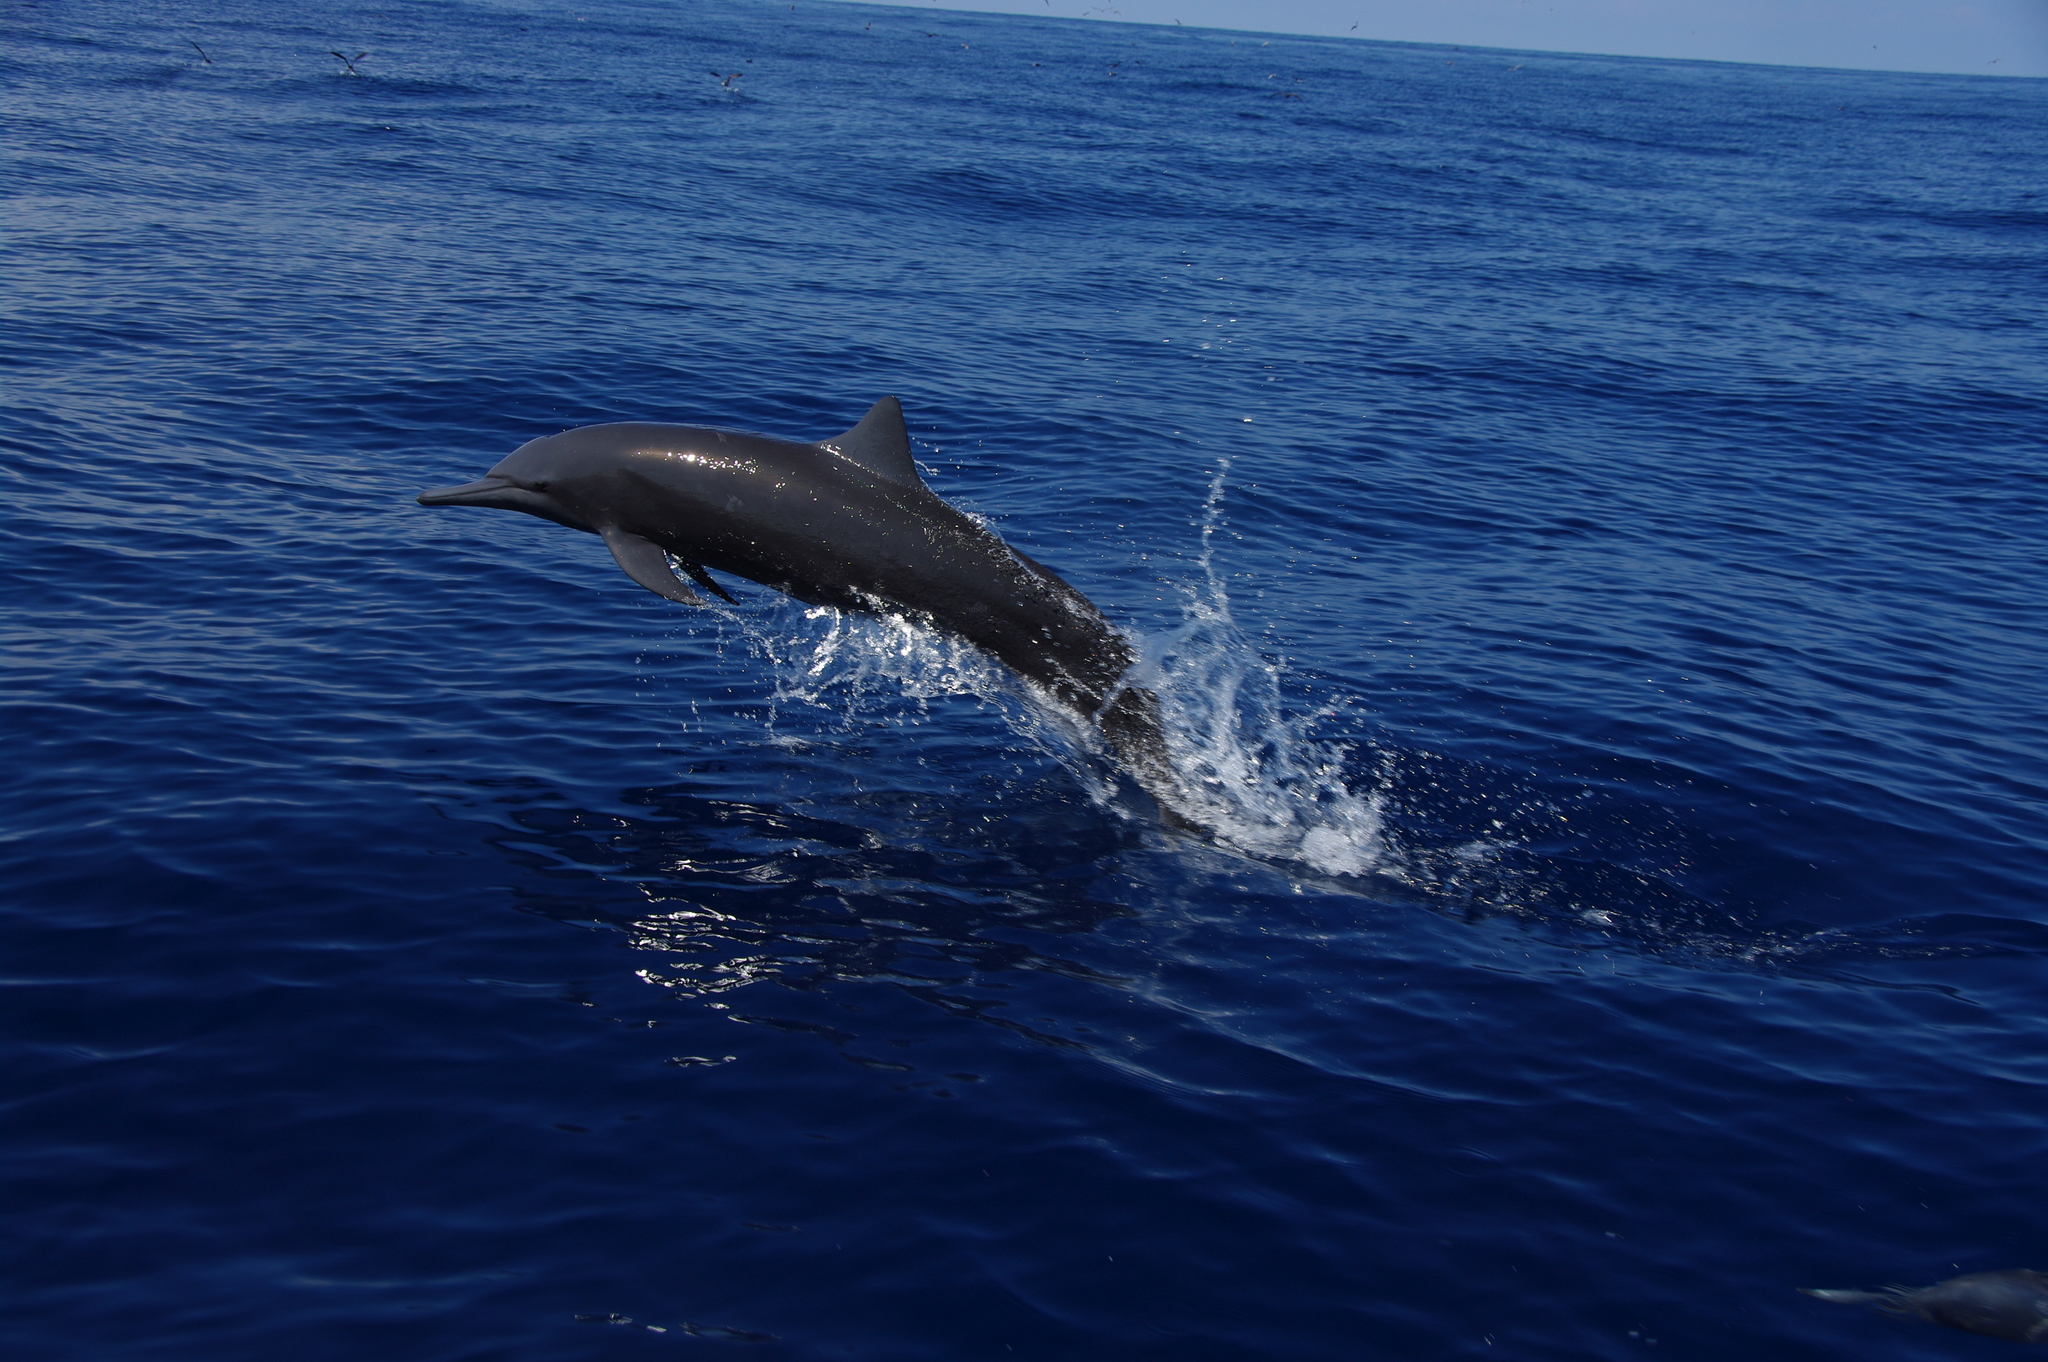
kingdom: Animalia
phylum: Chordata
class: Mammalia
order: Cetacea
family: Delphinidae
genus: Stenella
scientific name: Stenella longirostris
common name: Spinner dolphin
